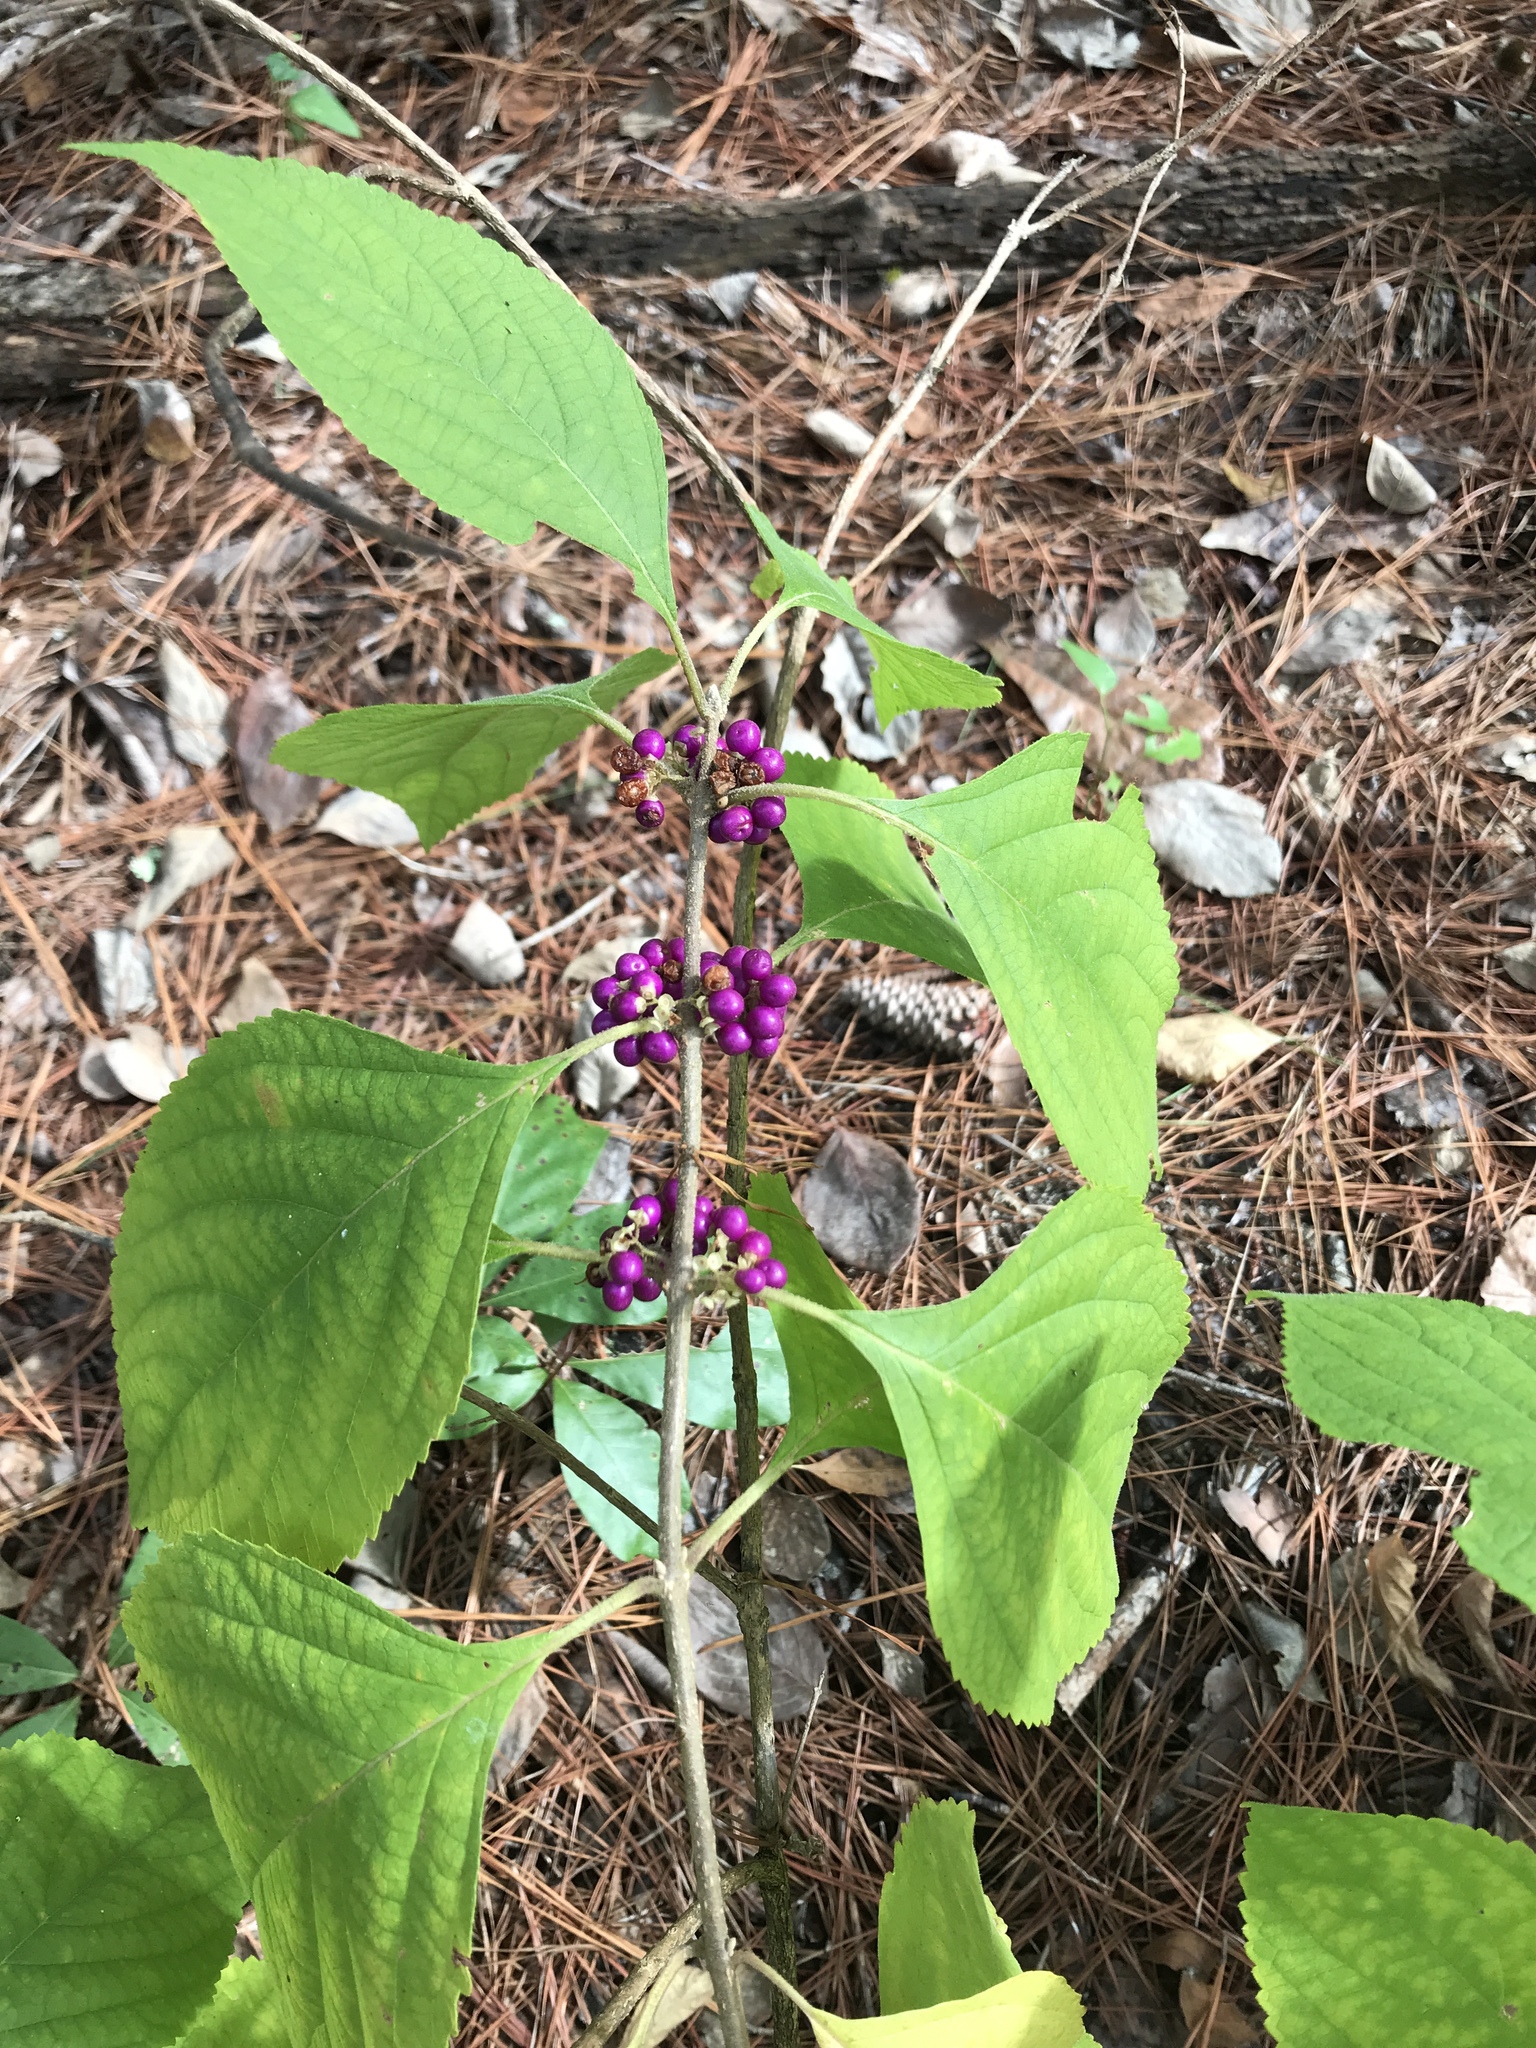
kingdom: Plantae
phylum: Tracheophyta
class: Magnoliopsida
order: Lamiales
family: Lamiaceae
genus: Callicarpa
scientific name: Callicarpa americana
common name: American beautyberry
